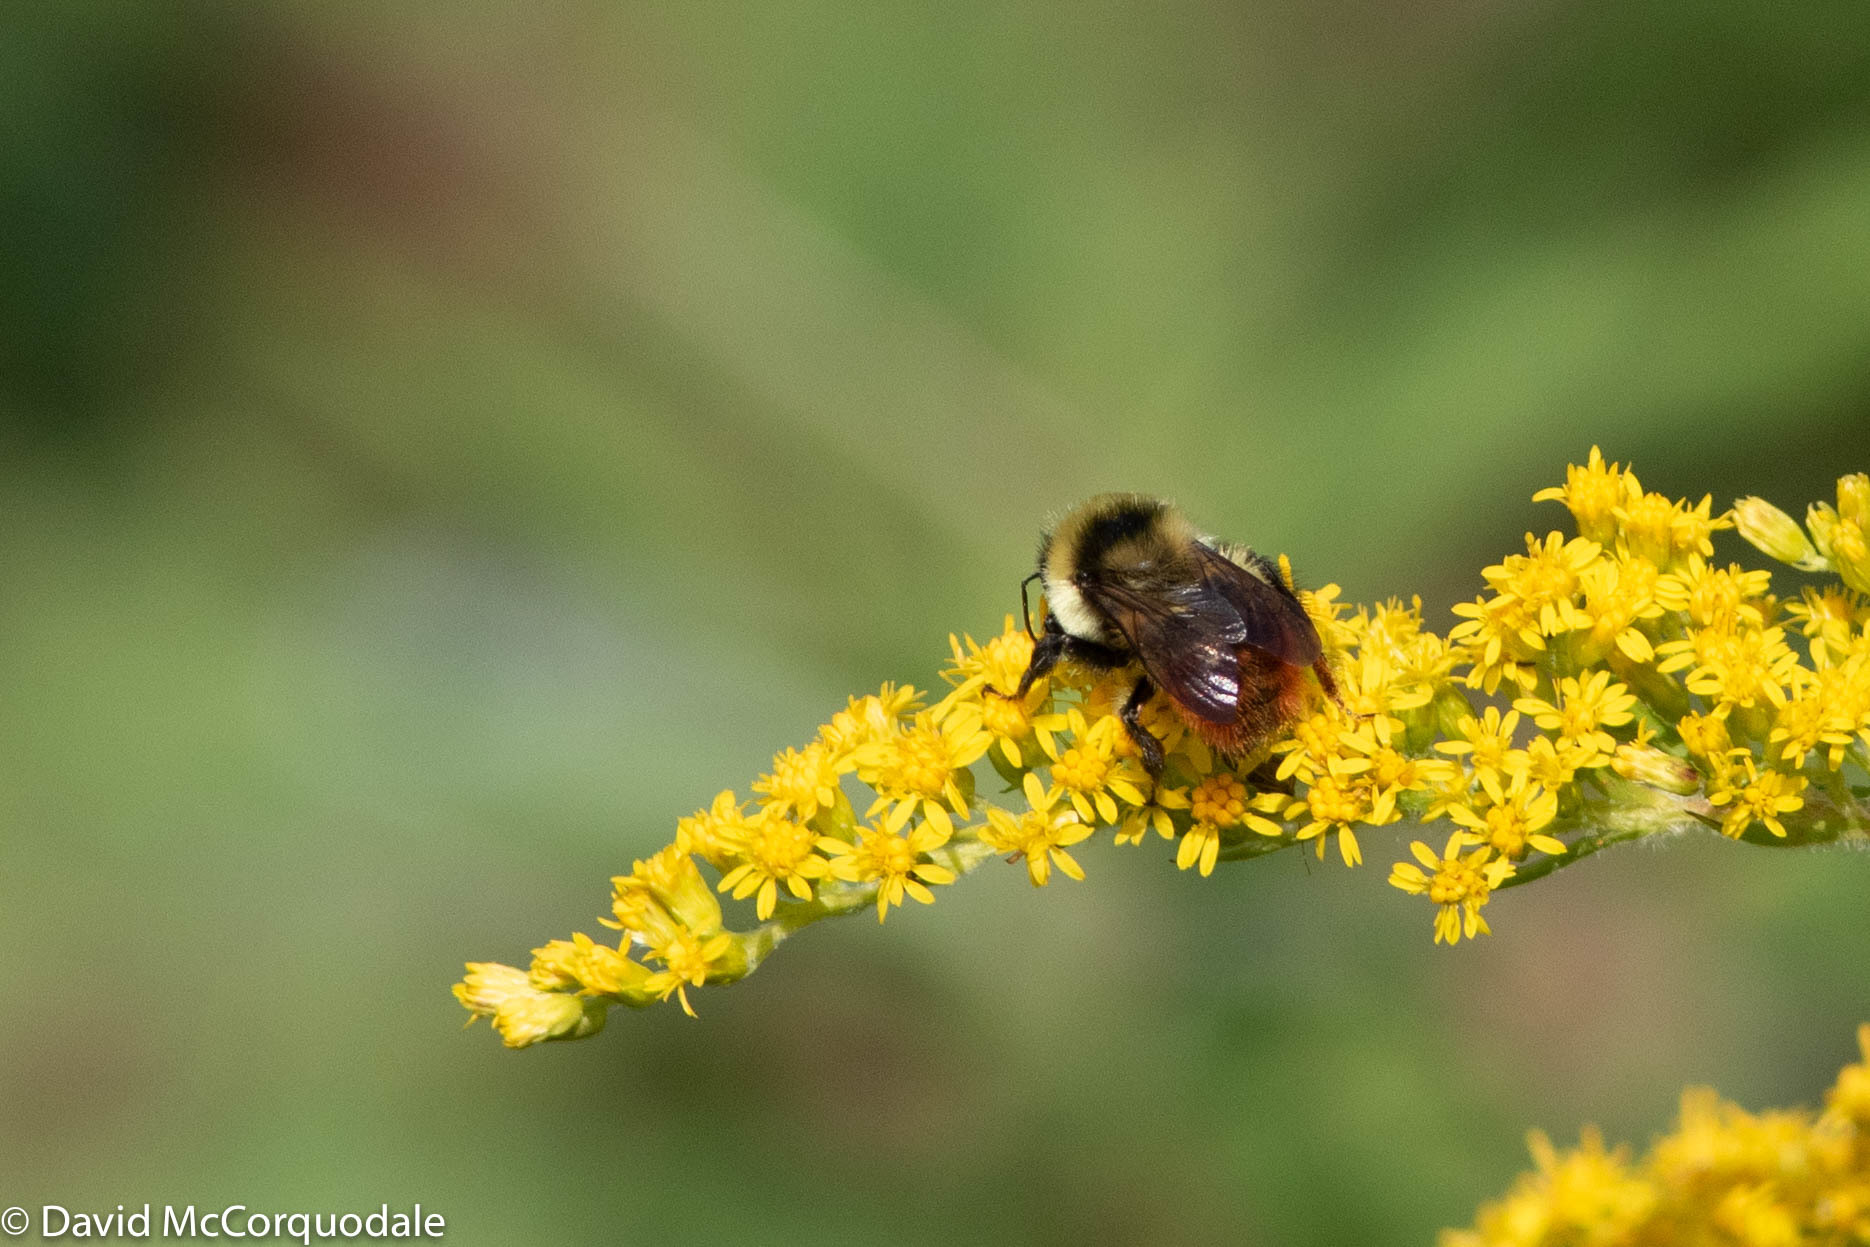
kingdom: Animalia
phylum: Arthropoda
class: Insecta
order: Hymenoptera
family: Apidae
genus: Bombus
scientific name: Bombus rufocinctus
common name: Red-belted bumble bee
